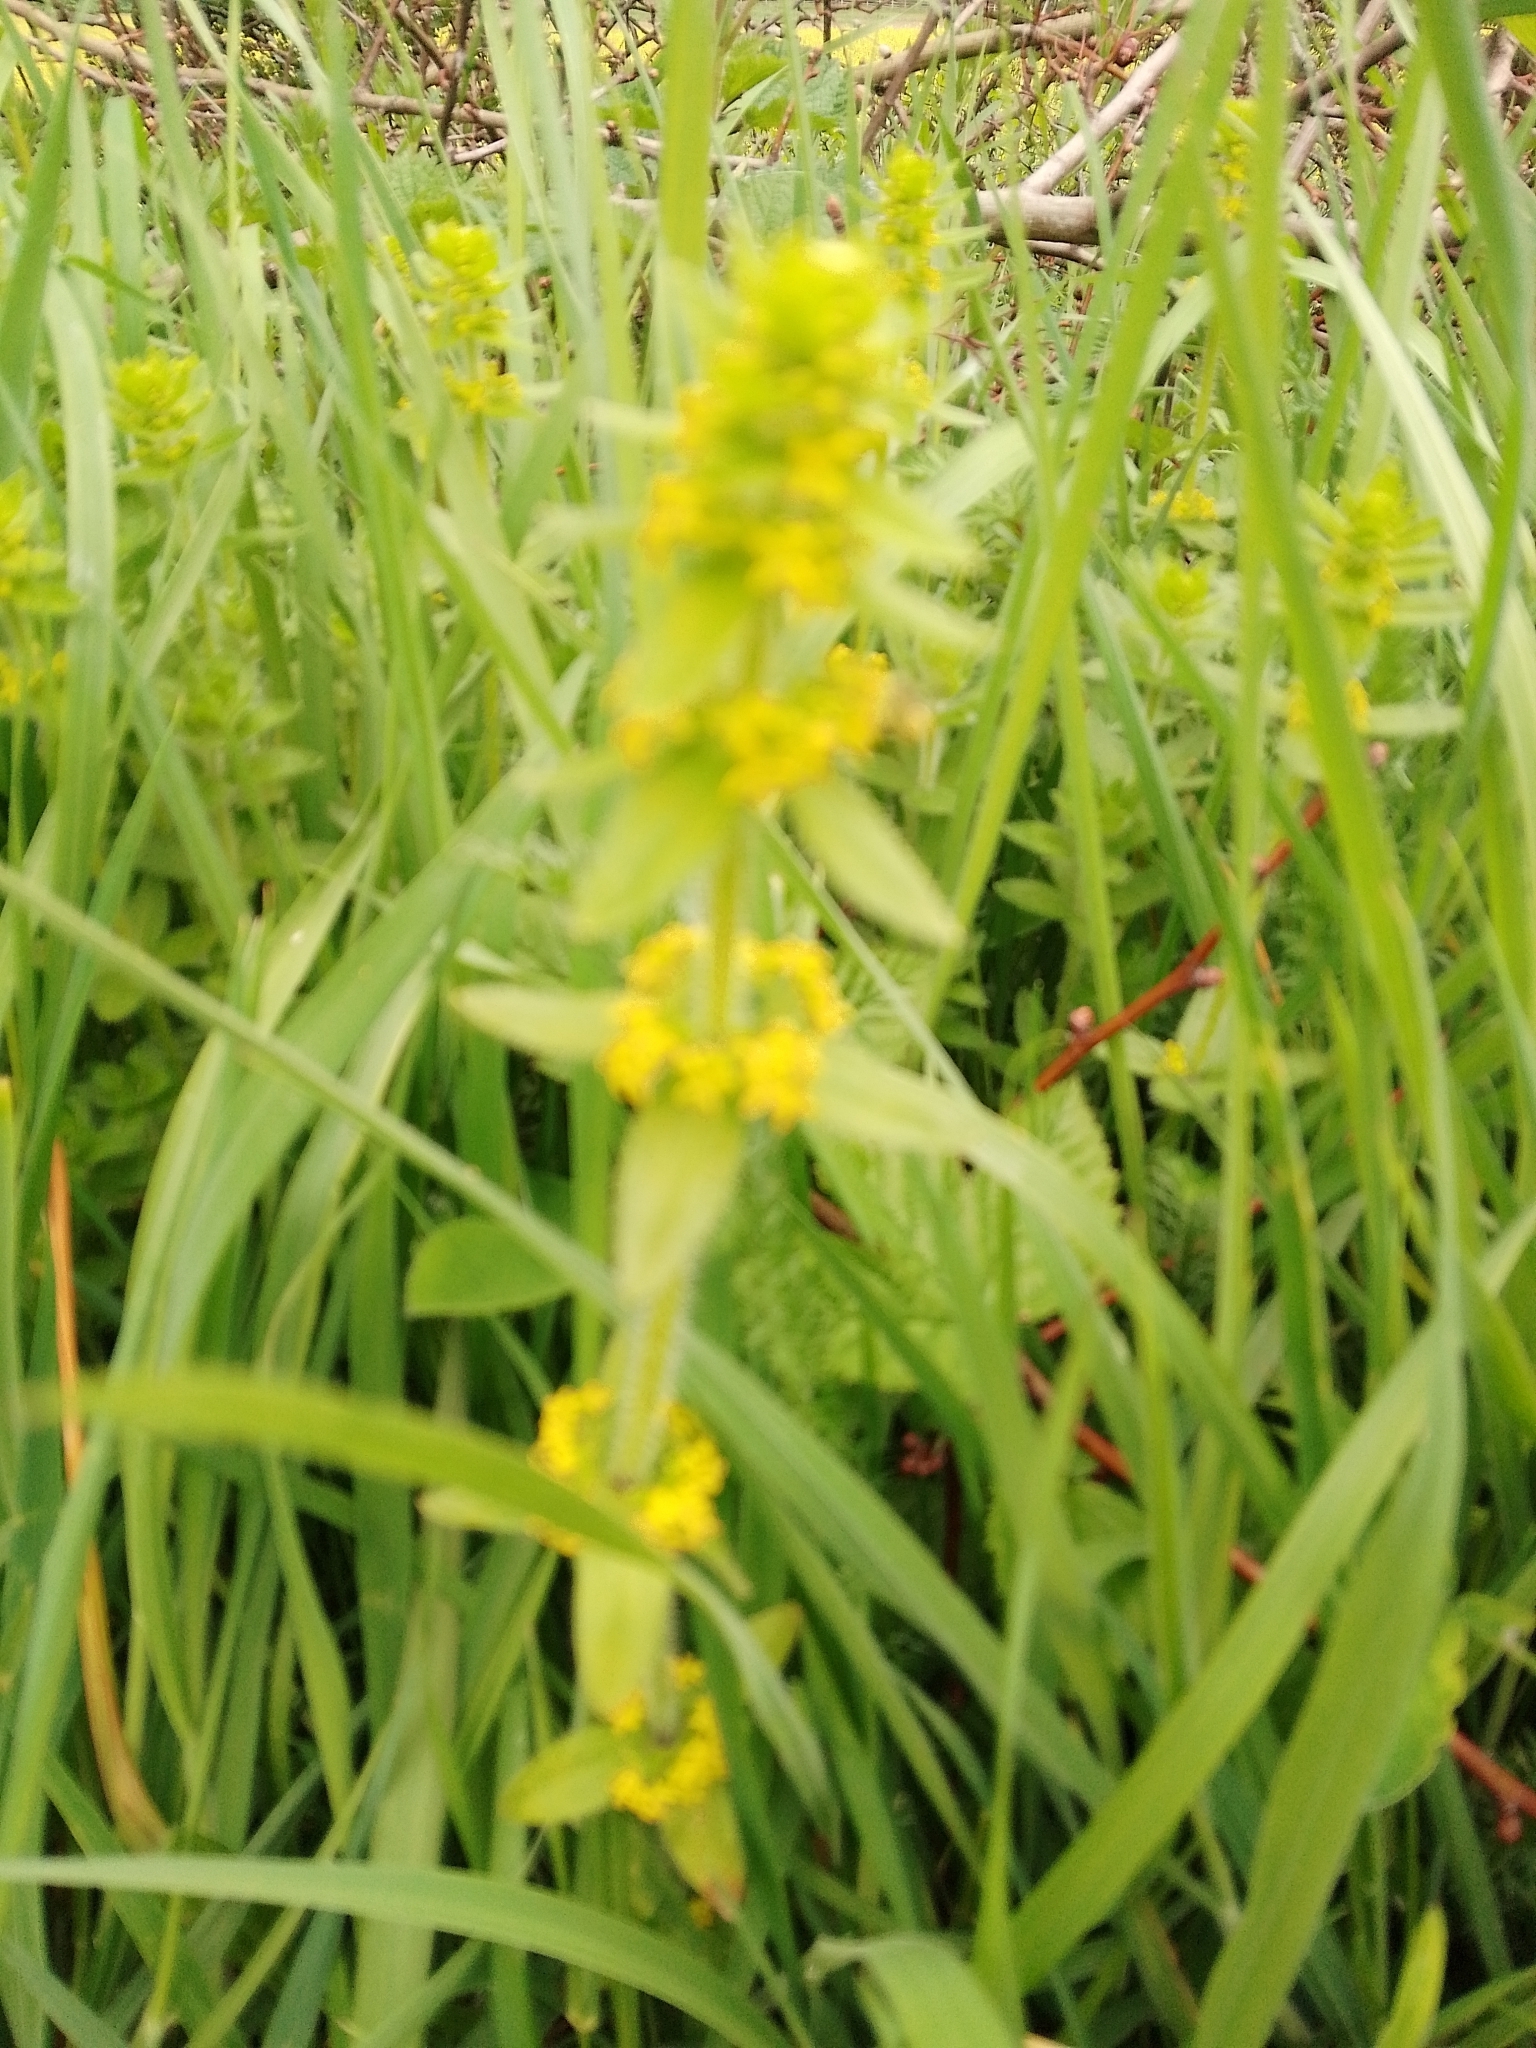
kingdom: Plantae
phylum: Tracheophyta
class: Magnoliopsida
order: Gentianales
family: Rubiaceae
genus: Cruciata
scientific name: Cruciata laevipes
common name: Crosswort
